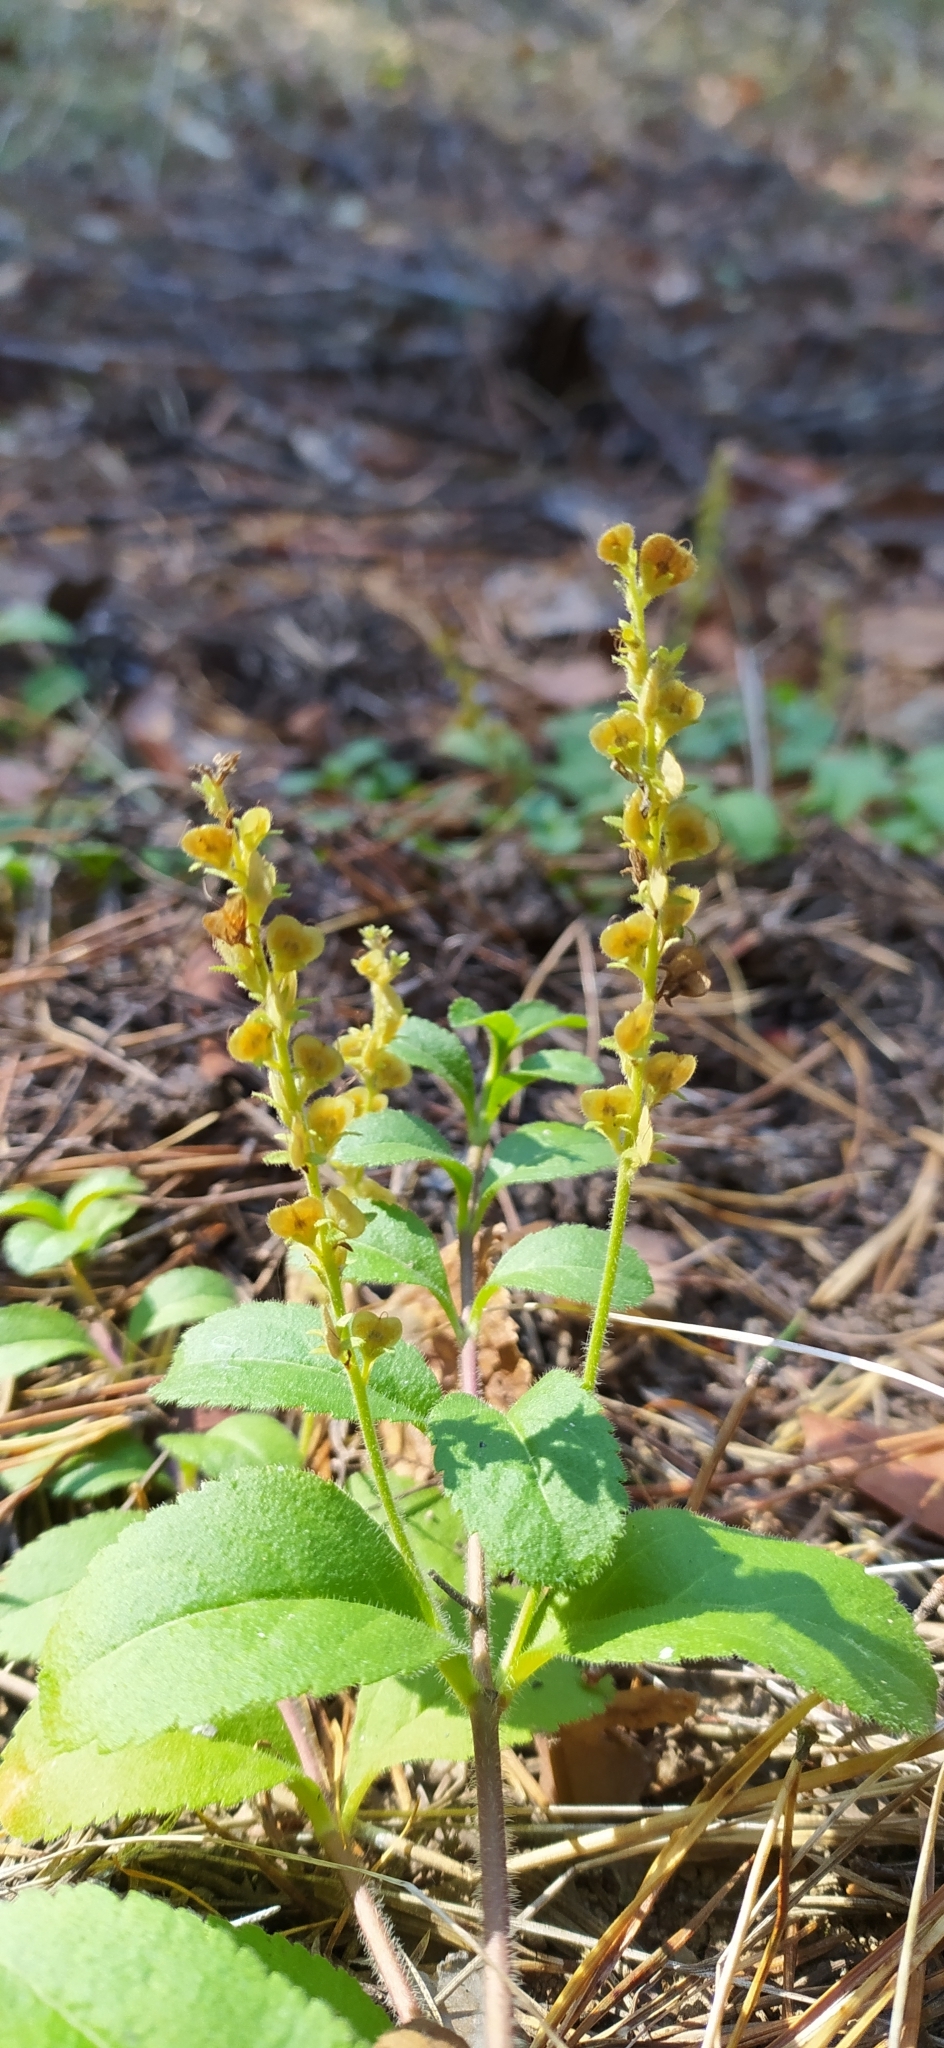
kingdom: Plantae
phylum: Tracheophyta
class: Magnoliopsida
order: Lamiales
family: Plantaginaceae
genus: Veronica
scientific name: Veronica officinalis
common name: Common speedwell
